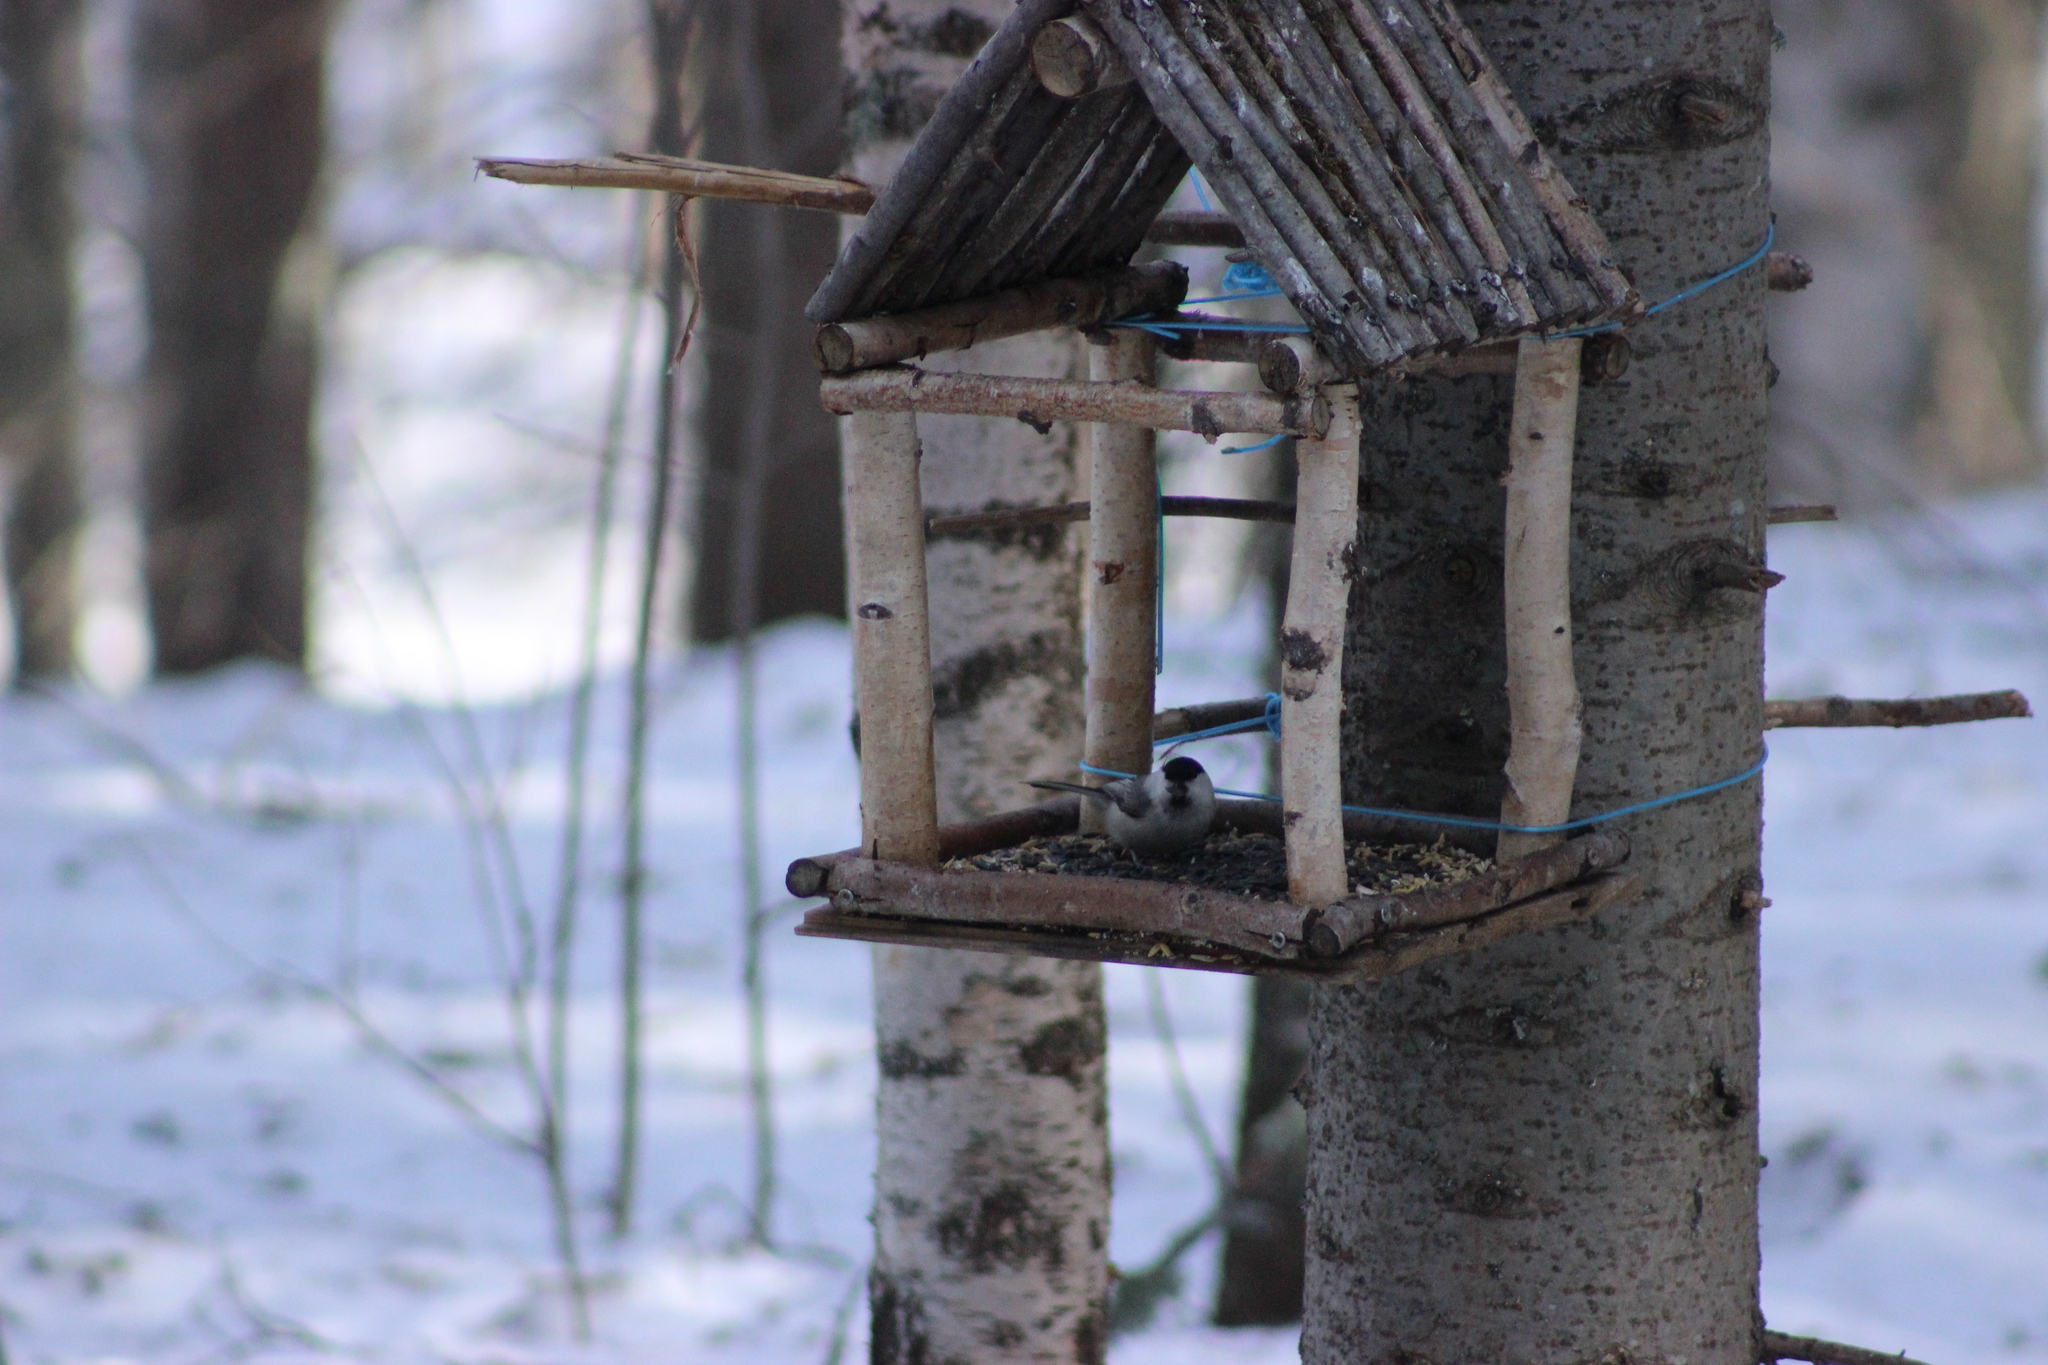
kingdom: Animalia
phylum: Chordata
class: Aves
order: Passeriformes
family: Paridae
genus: Poecile
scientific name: Poecile montanus
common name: Willow tit
